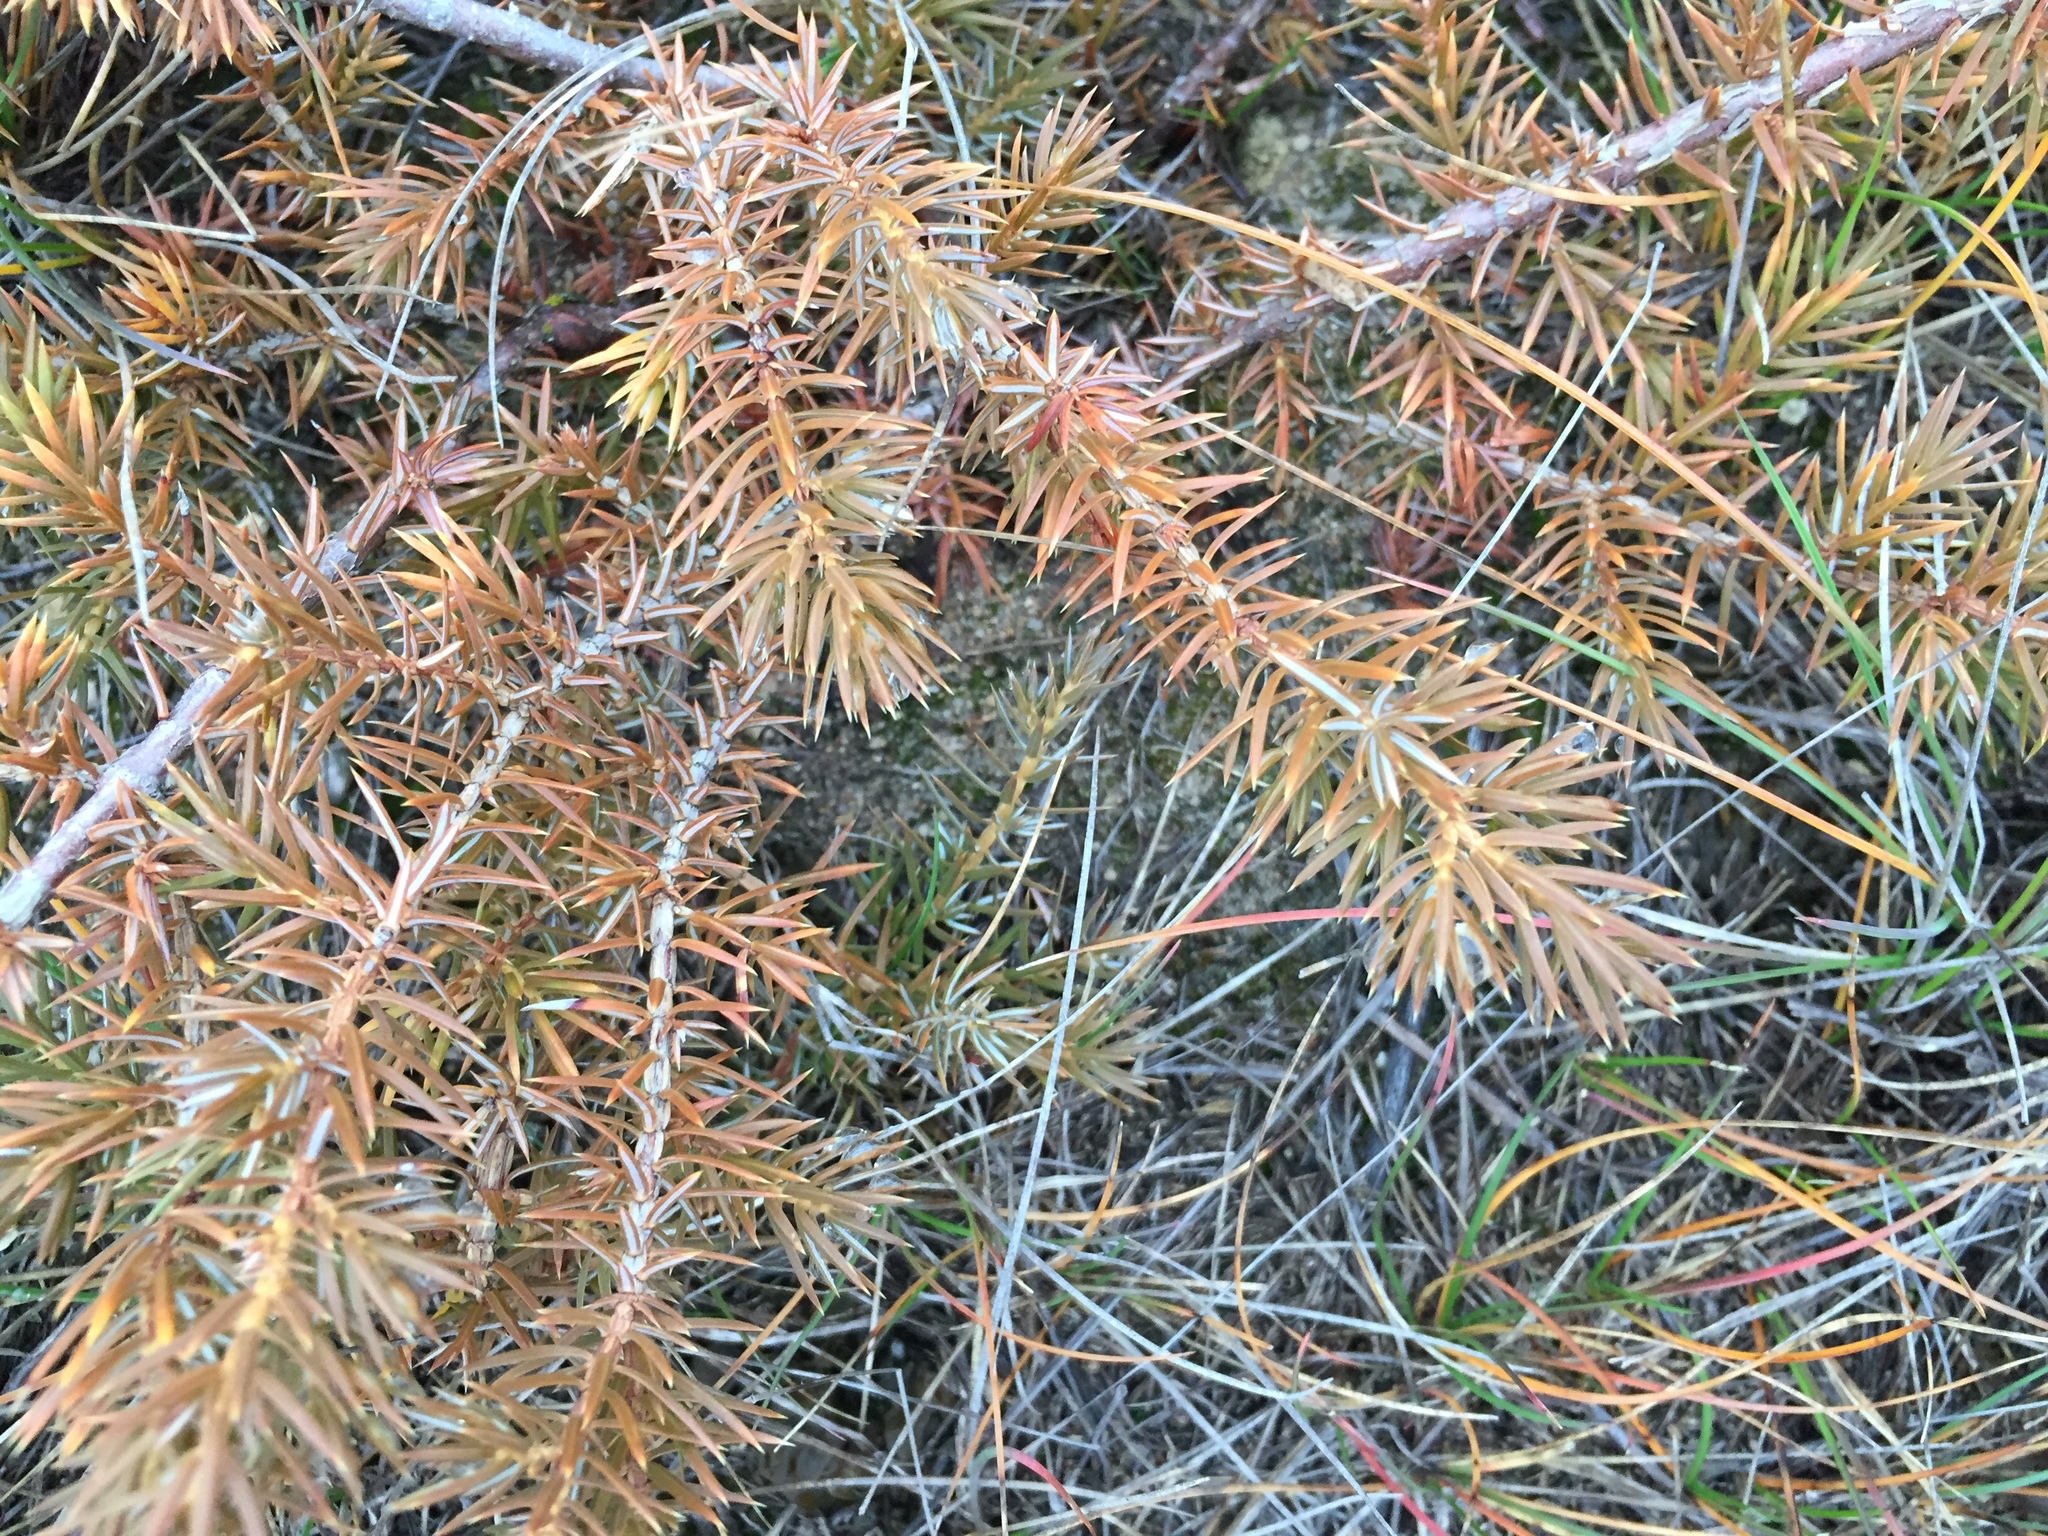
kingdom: Plantae
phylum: Tracheophyta
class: Pinopsida
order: Pinales
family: Cupressaceae
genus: Juniperus
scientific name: Juniperus communis
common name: Common juniper
